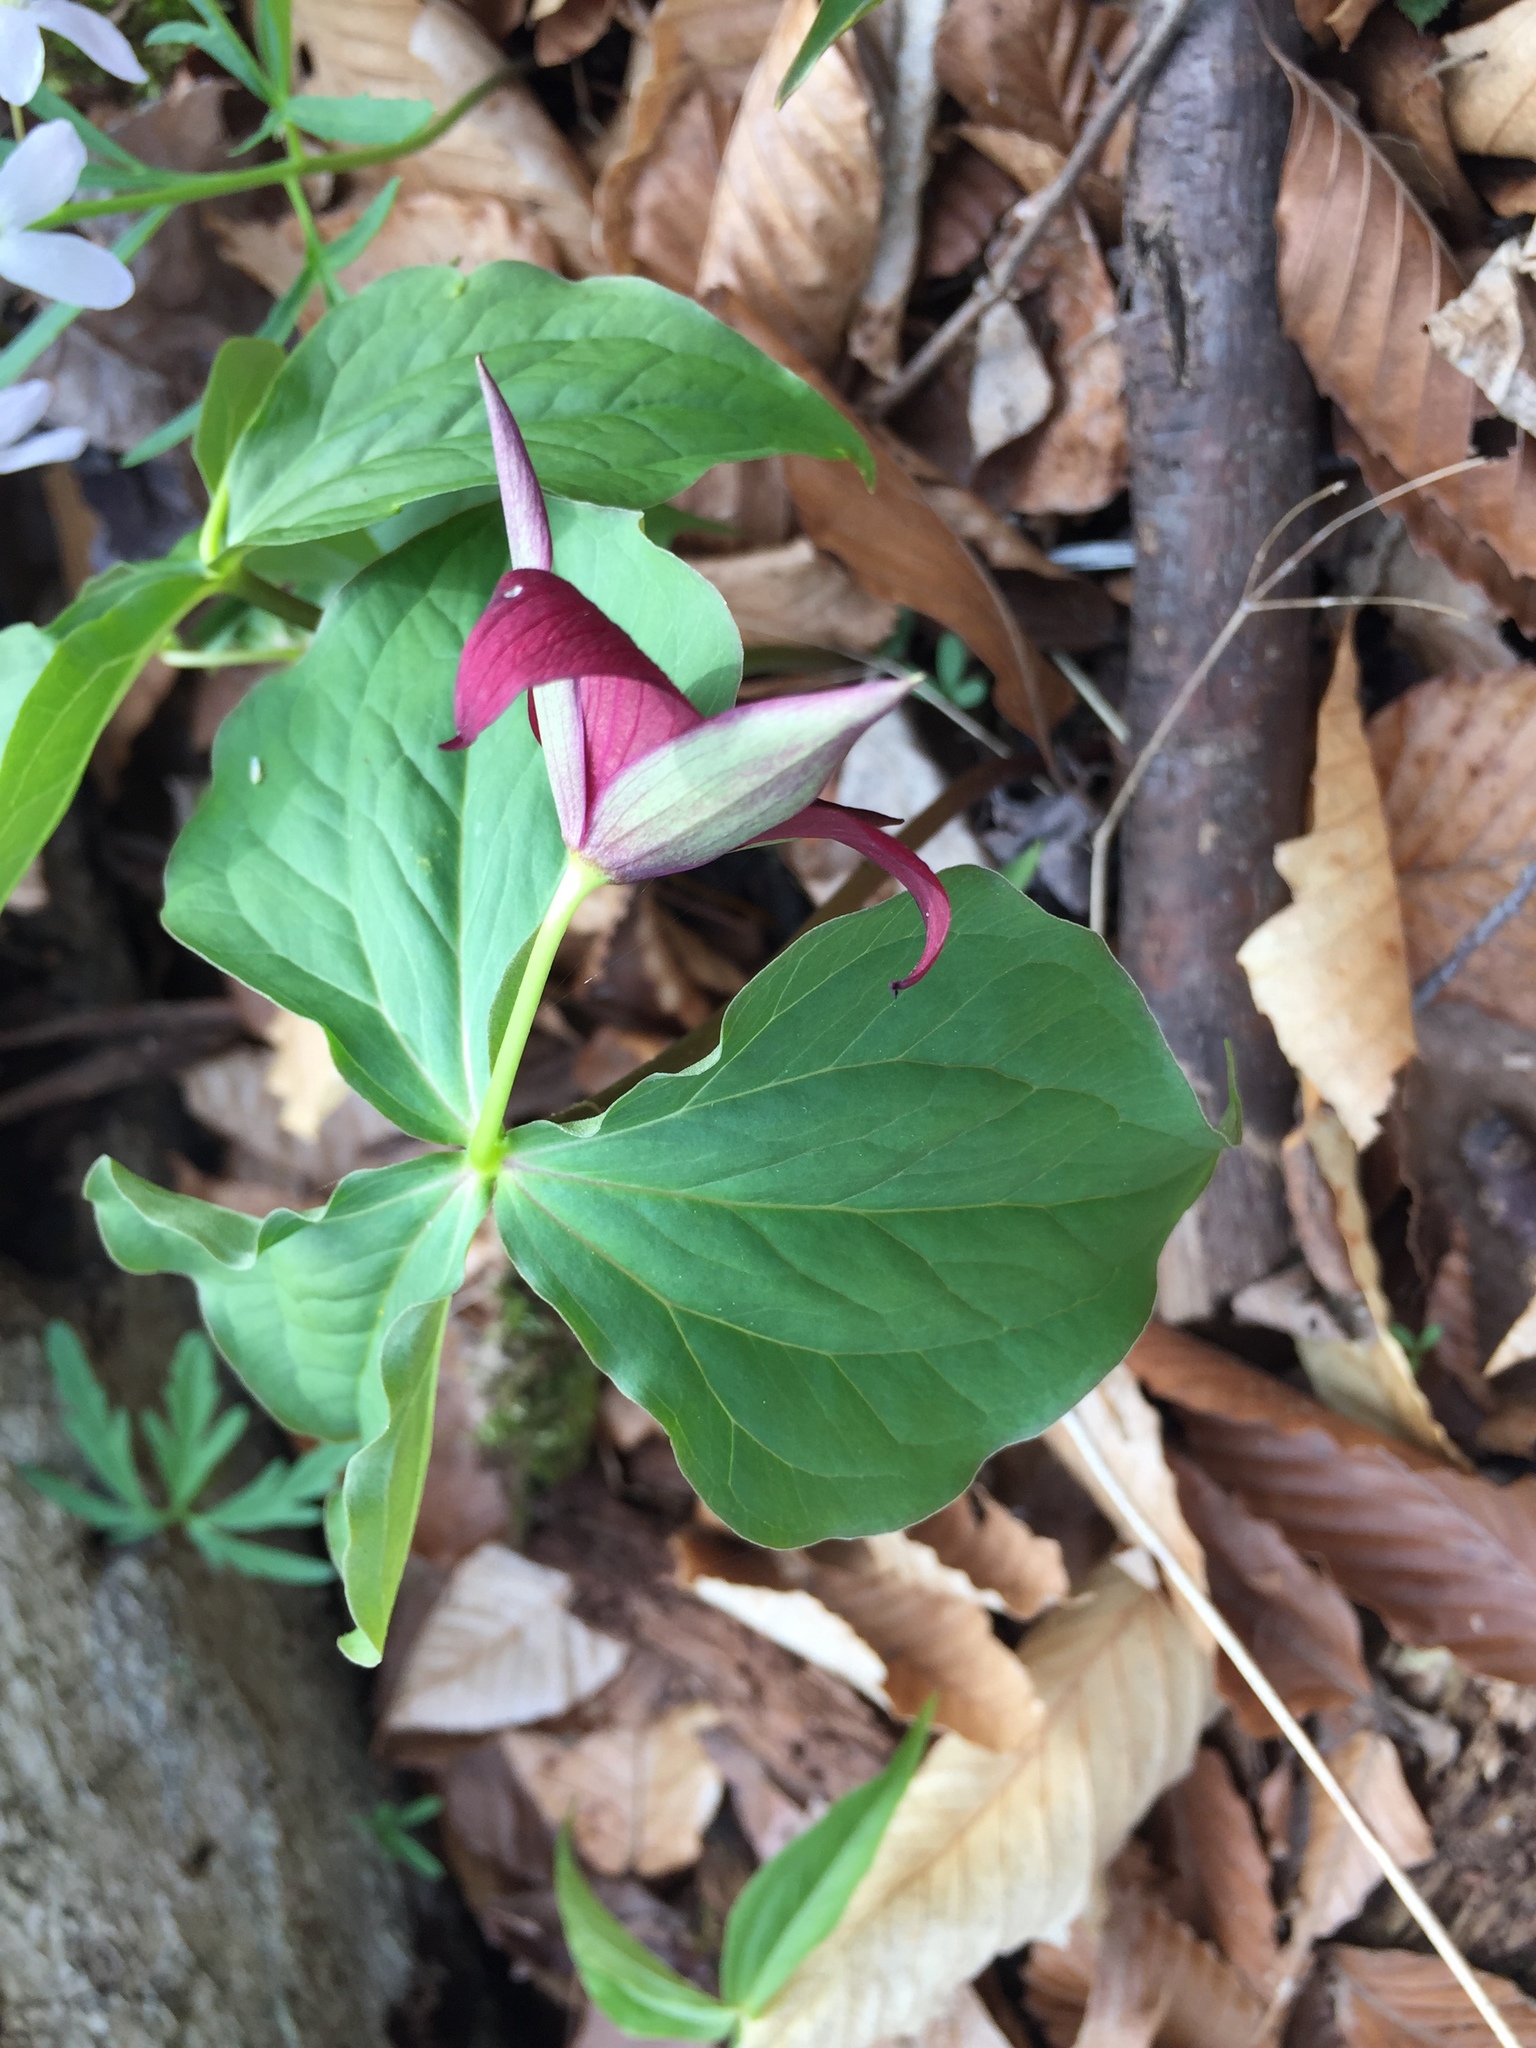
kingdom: Plantae
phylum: Tracheophyta
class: Liliopsida
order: Liliales
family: Melanthiaceae
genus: Trillium
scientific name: Trillium erectum
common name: Purple trillium
